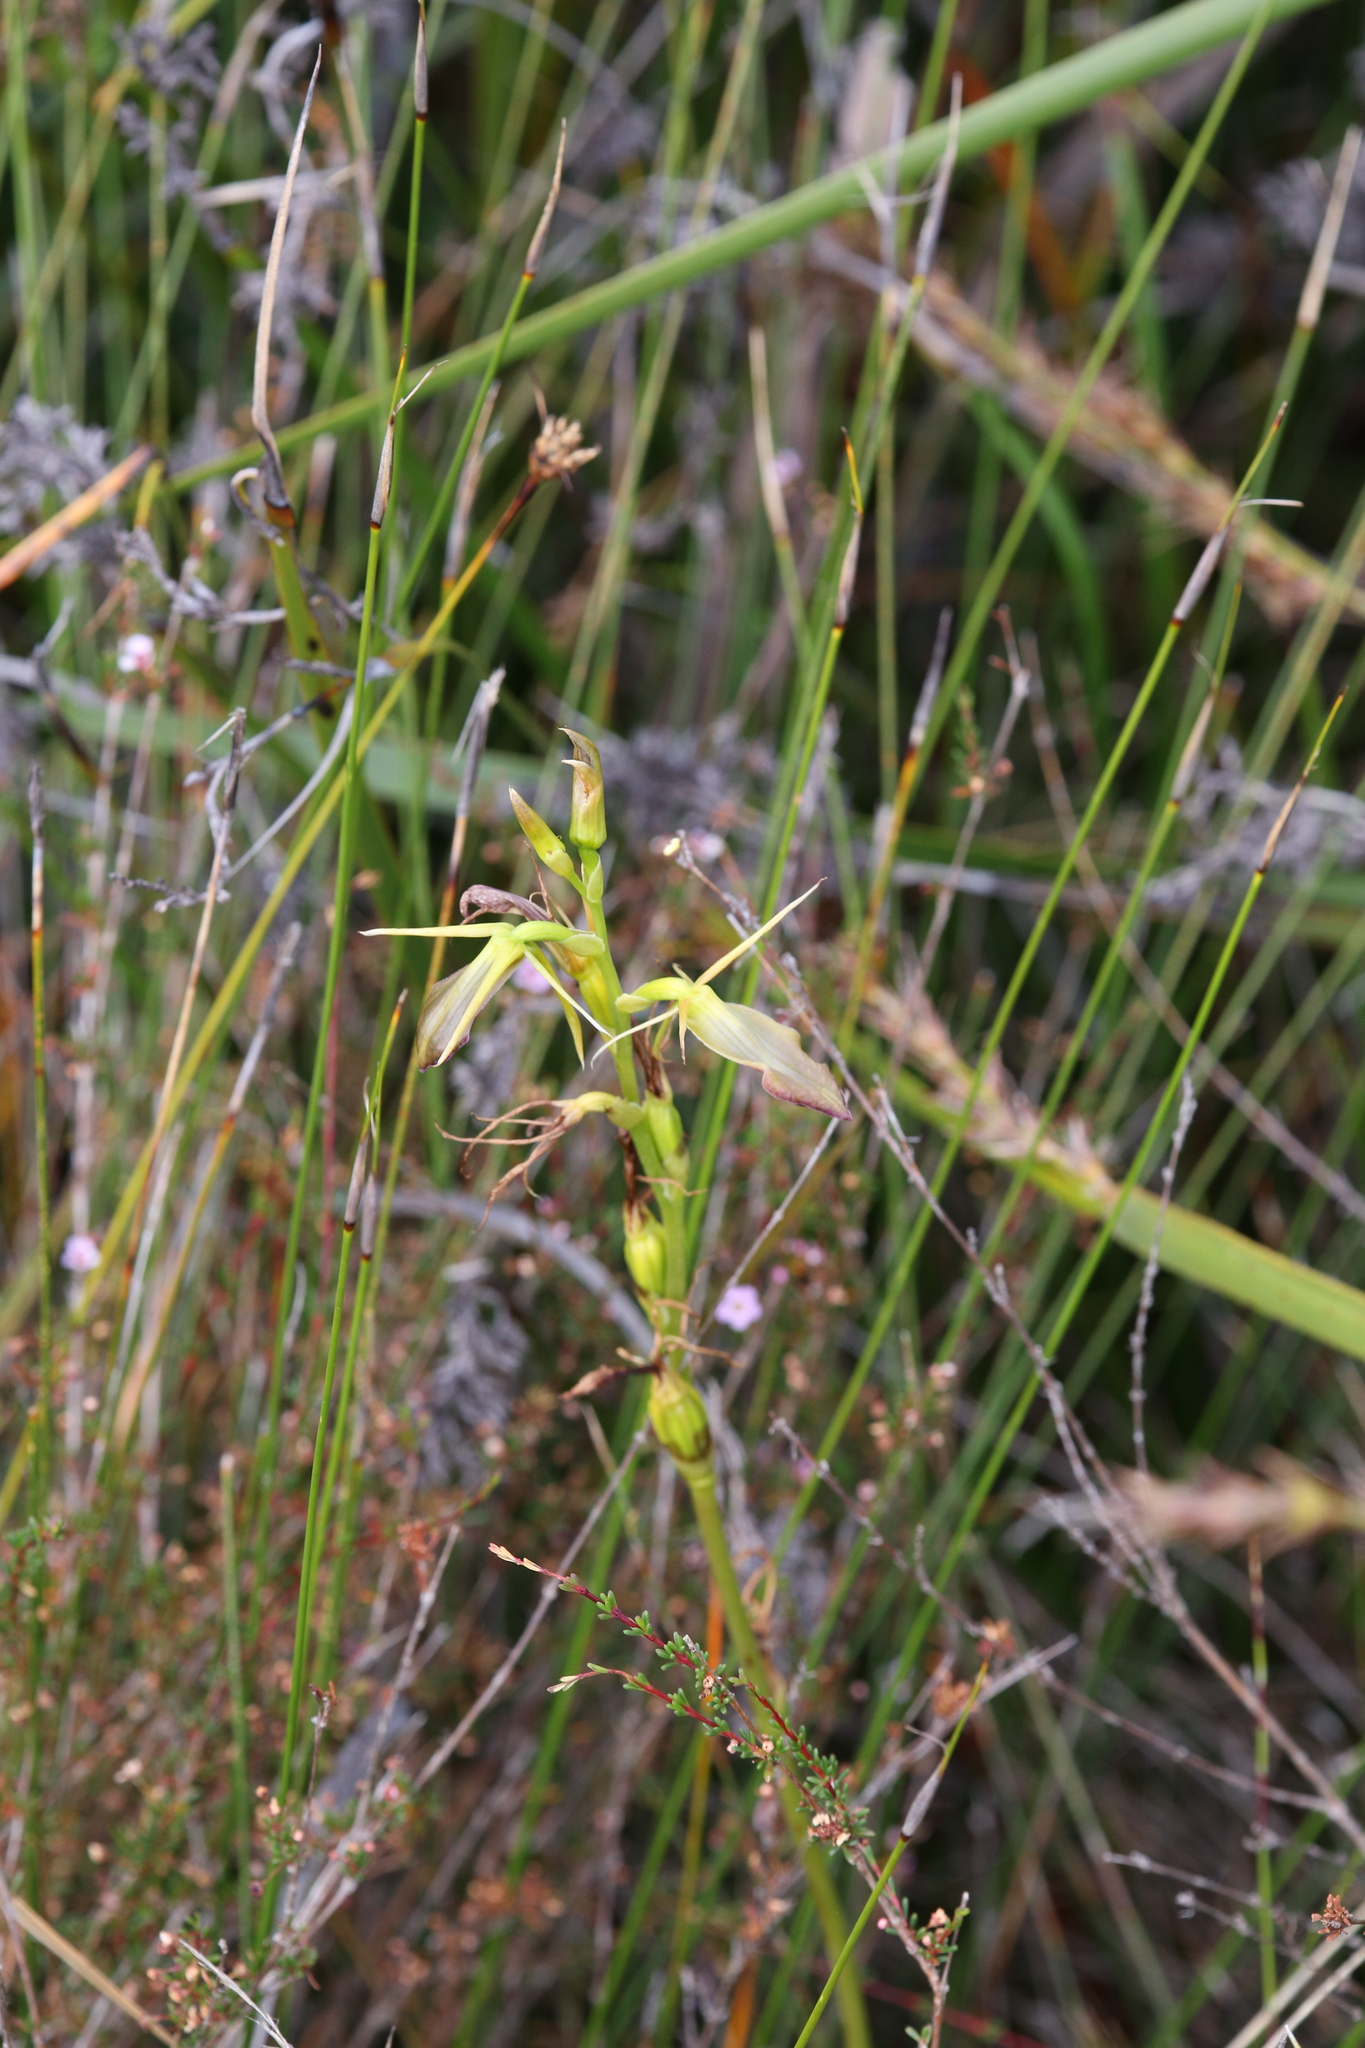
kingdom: Plantae
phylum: Tracheophyta
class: Liliopsida
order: Asparagales
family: Orchidaceae
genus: Cryptostylis
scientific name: Cryptostylis ovata
